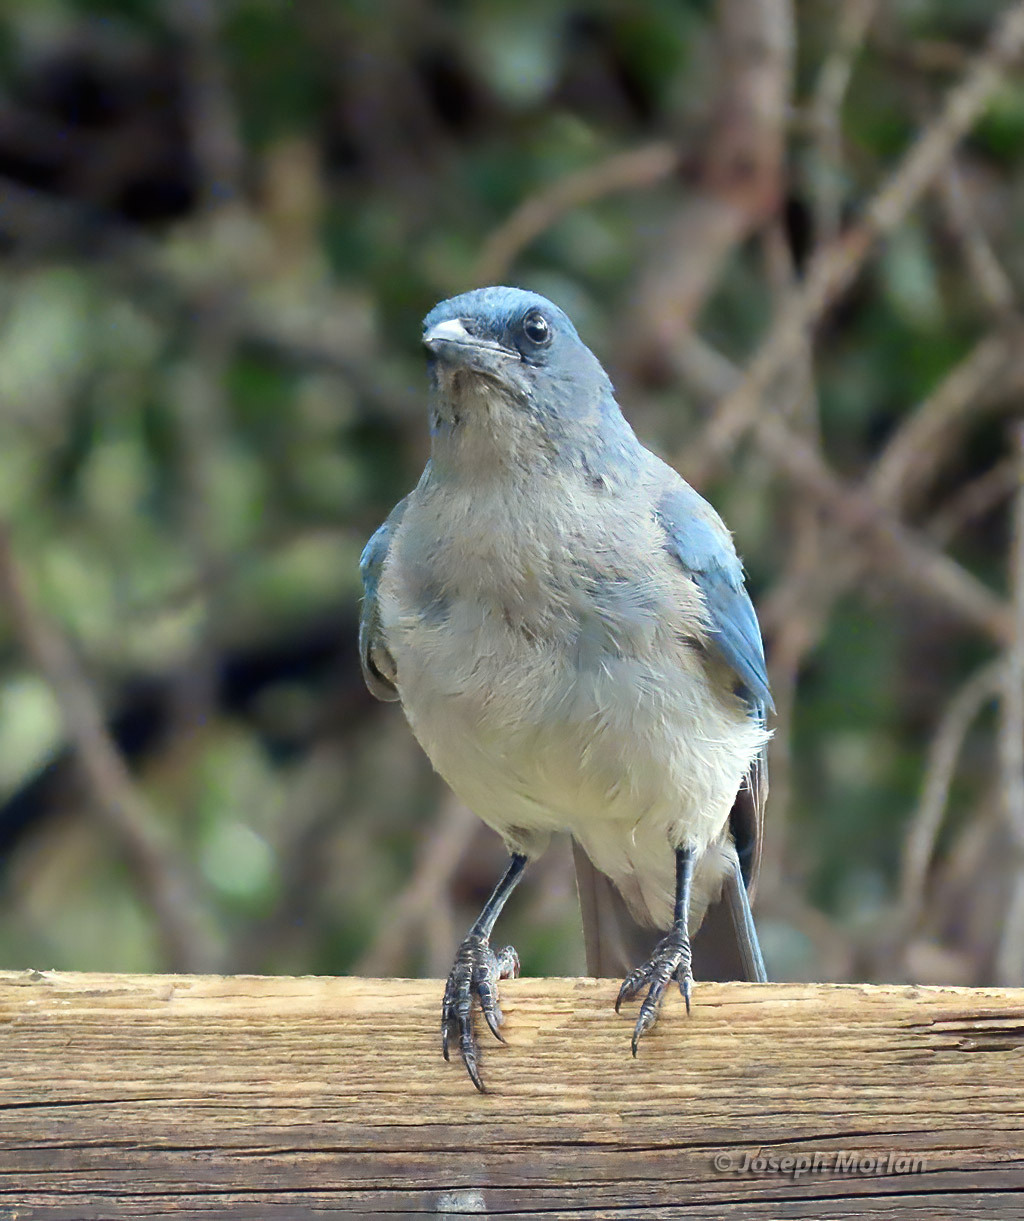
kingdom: Animalia
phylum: Chordata
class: Aves
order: Passeriformes
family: Corvidae
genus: Aphelocoma
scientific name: Aphelocoma wollweberi
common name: Mexican jay
